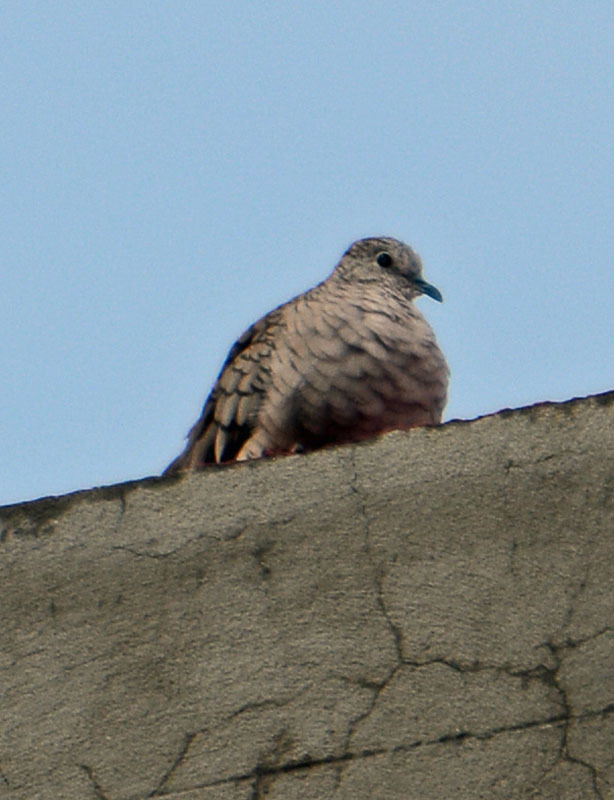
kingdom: Animalia
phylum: Chordata
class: Aves
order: Columbiformes
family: Columbidae
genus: Columbina
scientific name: Columbina inca
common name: Inca dove
